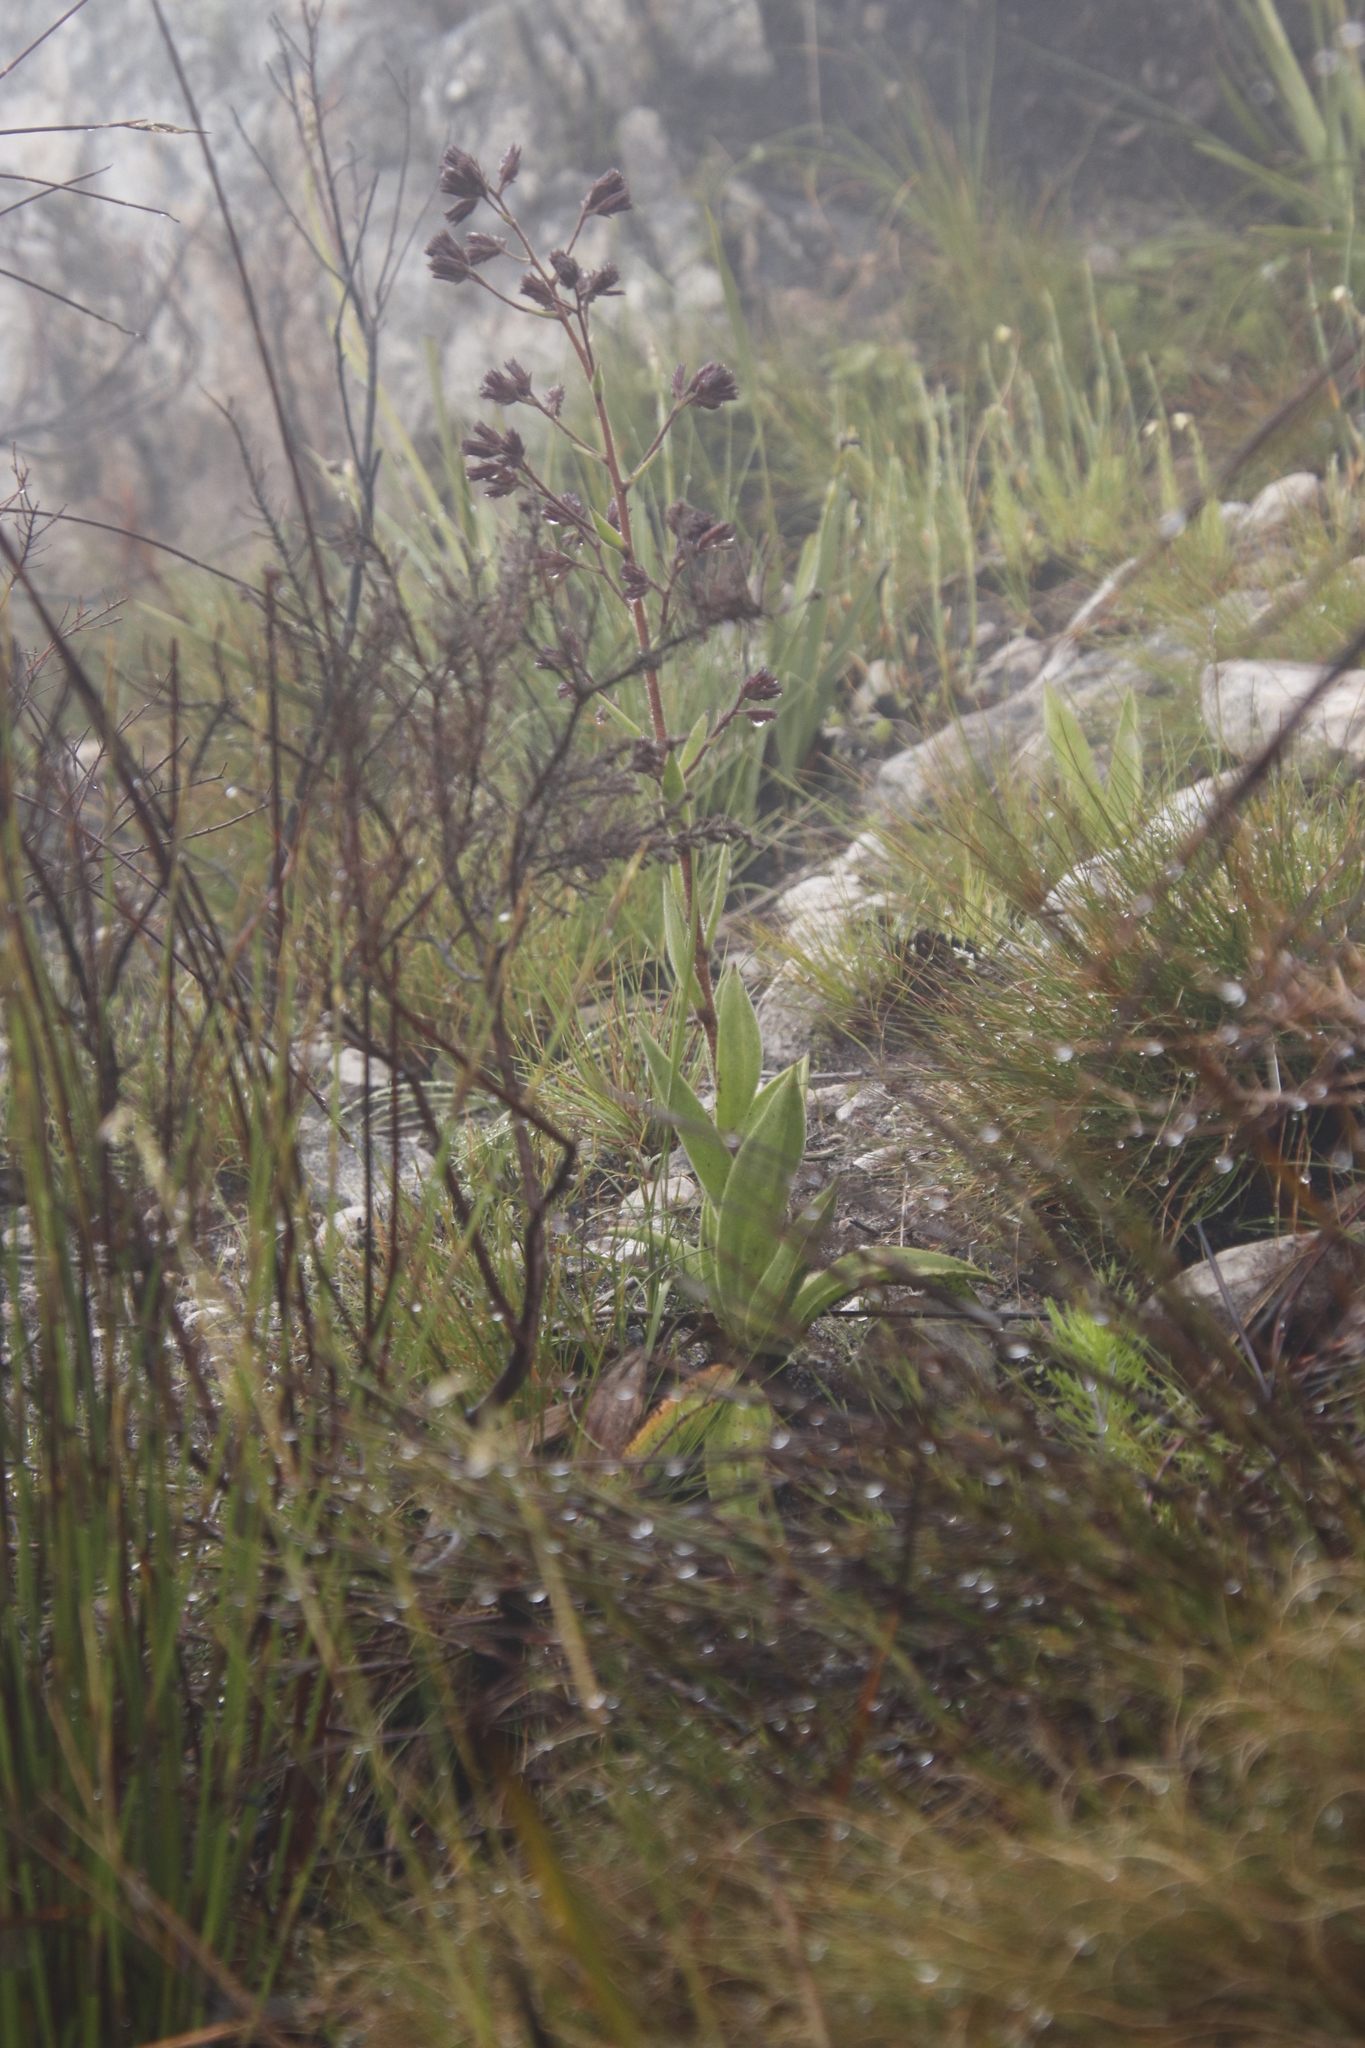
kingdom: Plantae
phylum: Tracheophyta
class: Magnoliopsida
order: Asterales
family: Asteraceae
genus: Corymbium
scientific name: Corymbium congestum
